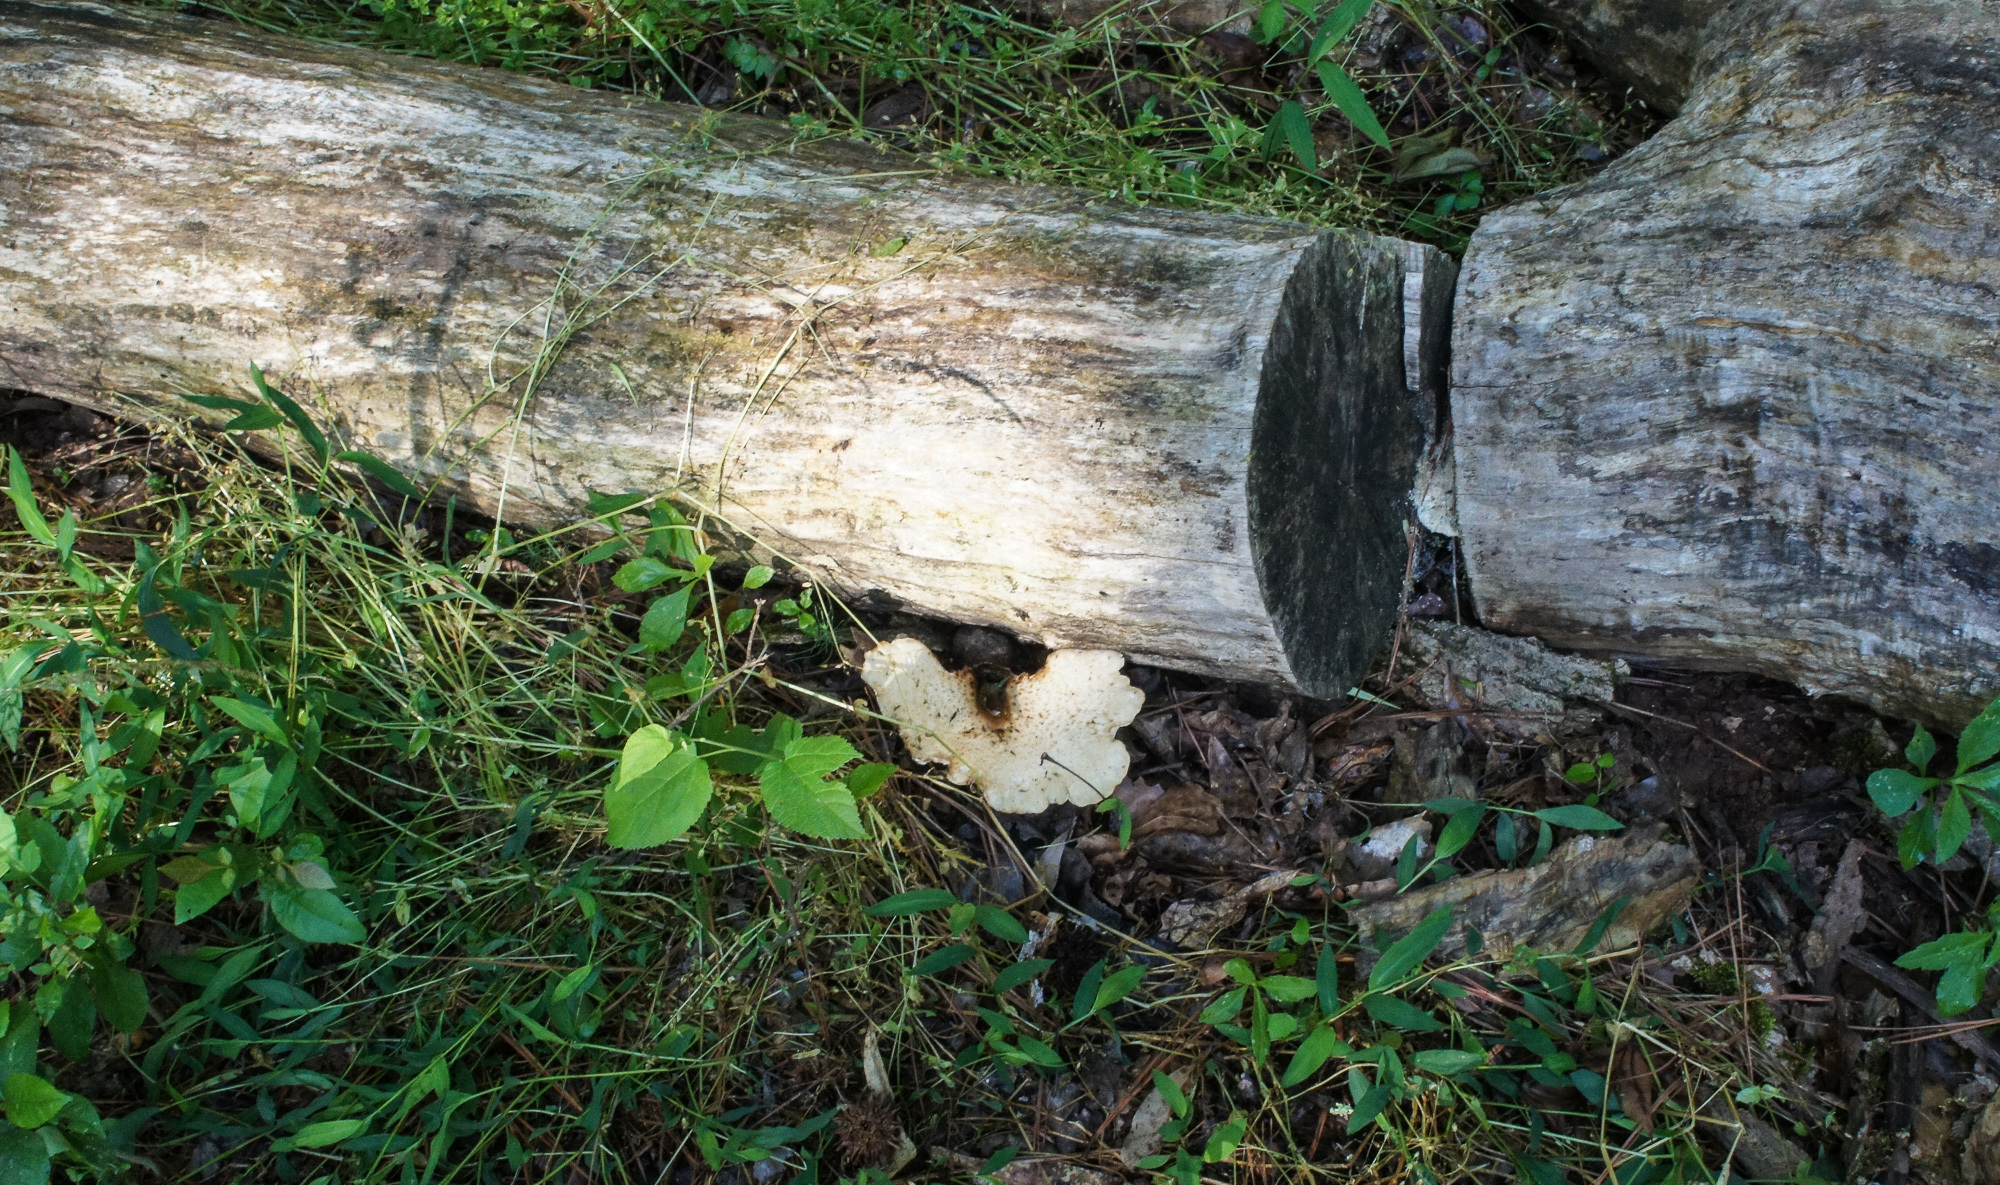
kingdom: Fungi
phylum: Basidiomycota
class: Agaricomycetes
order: Polyporales
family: Polyporaceae
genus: Cerioporus
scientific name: Cerioporus squamosus
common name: Dryad's saddle
